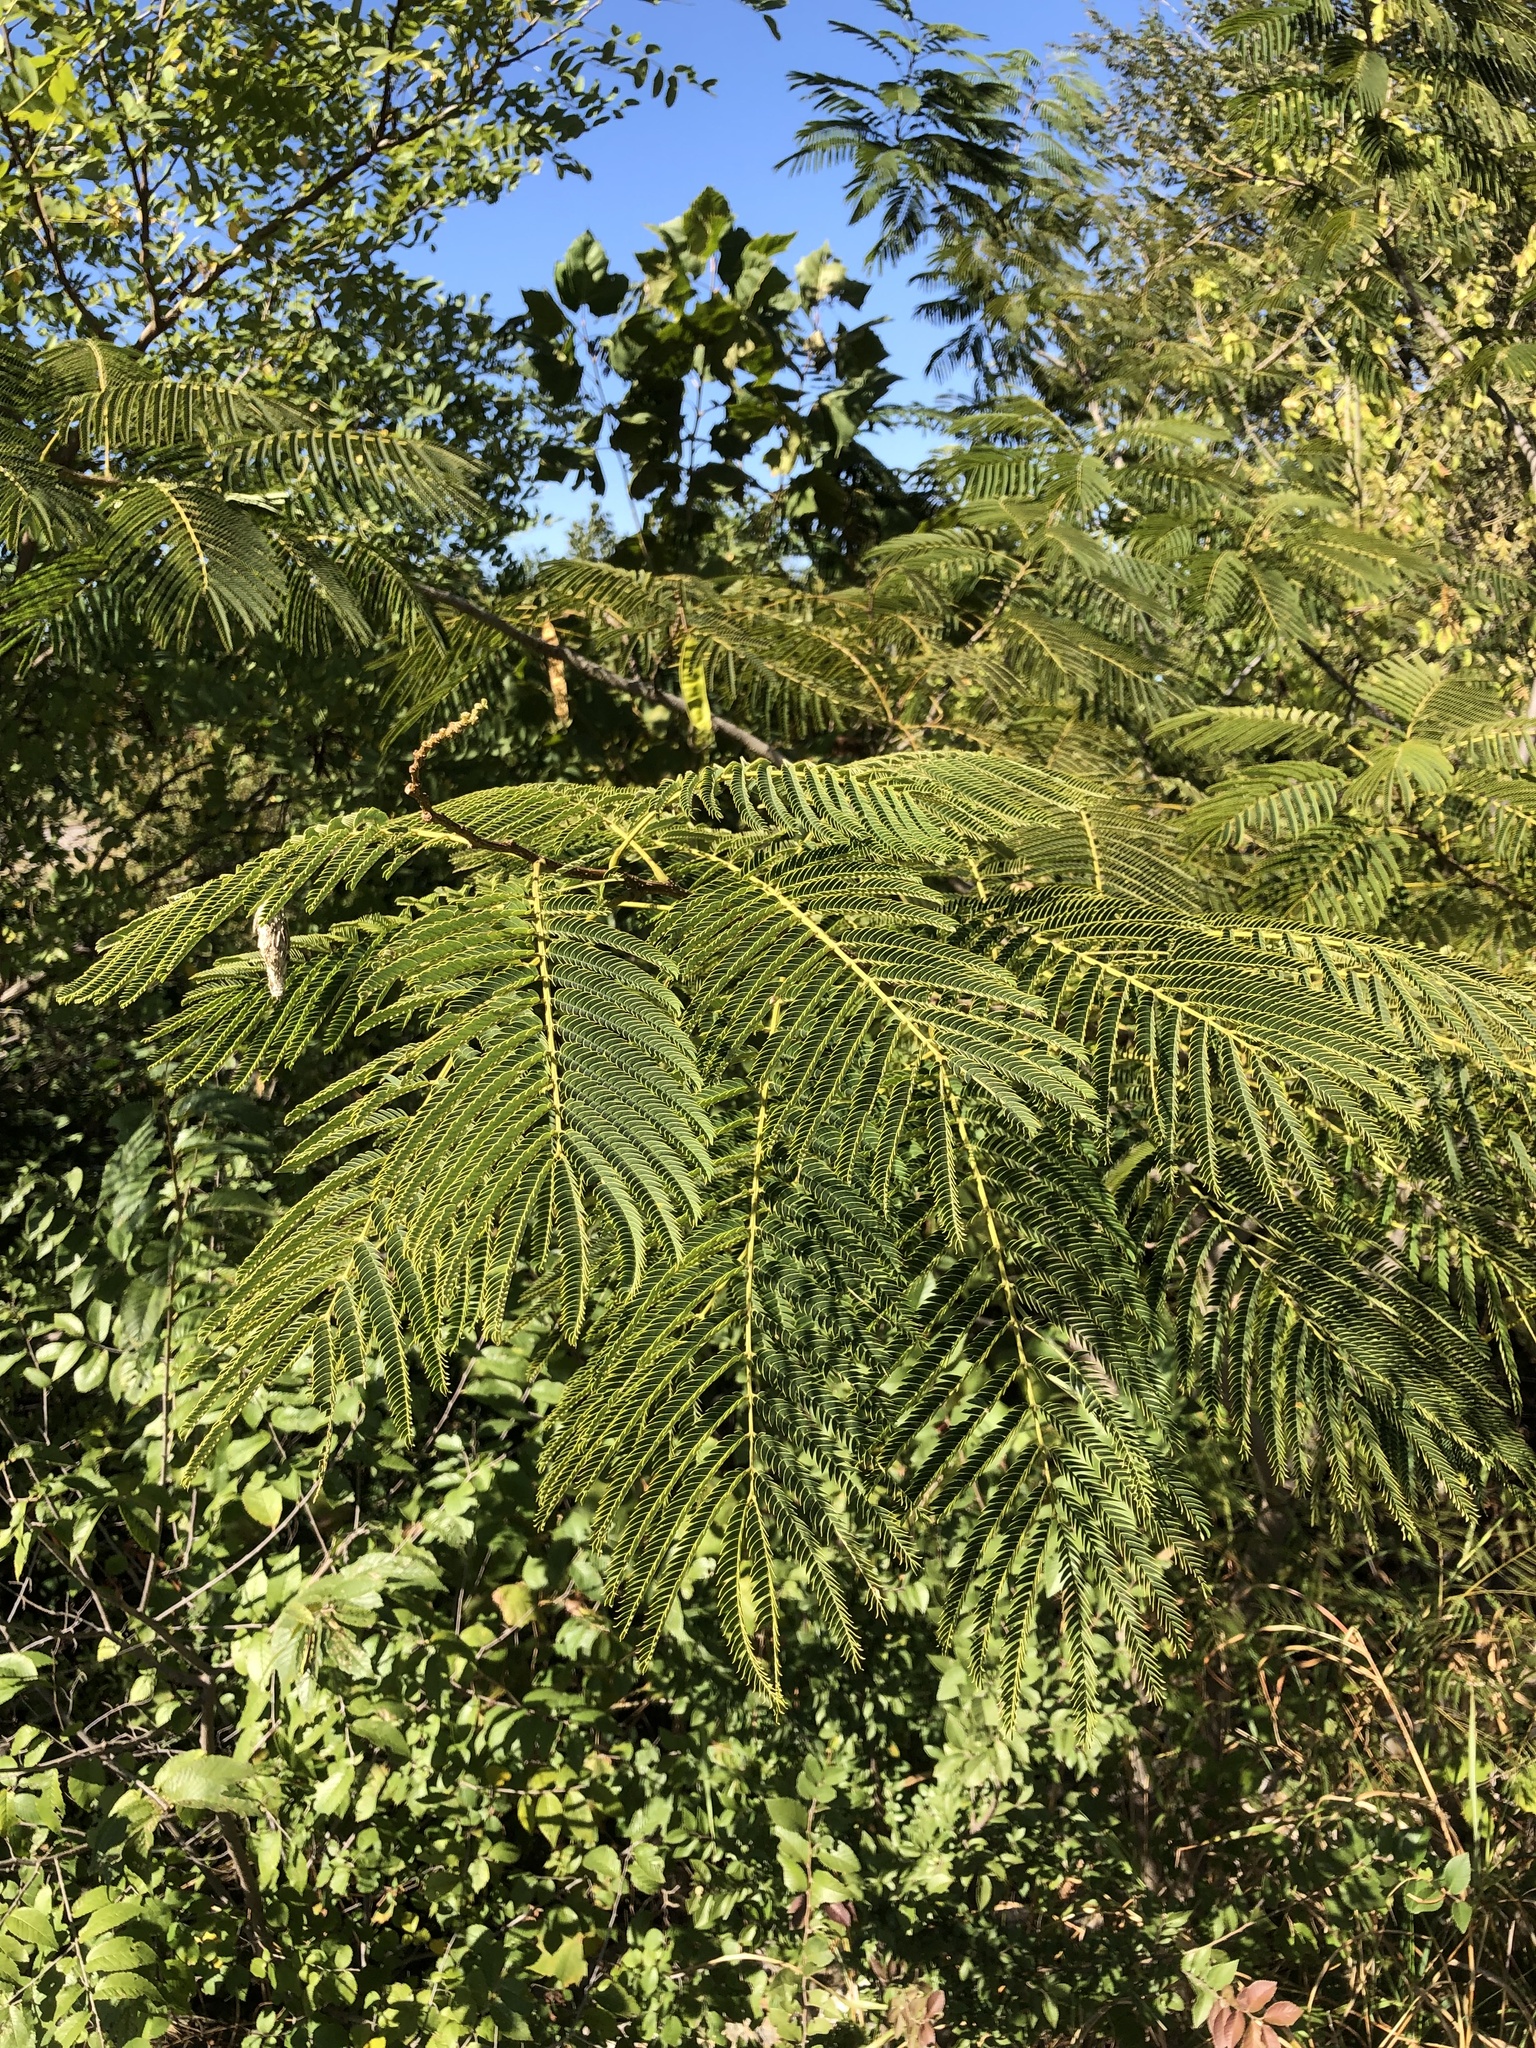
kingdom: Plantae
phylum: Tracheophyta
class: Magnoliopsida
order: Fabales
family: Fabaceae
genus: Albizia
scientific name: Albizia julibrissin
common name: Silktree
